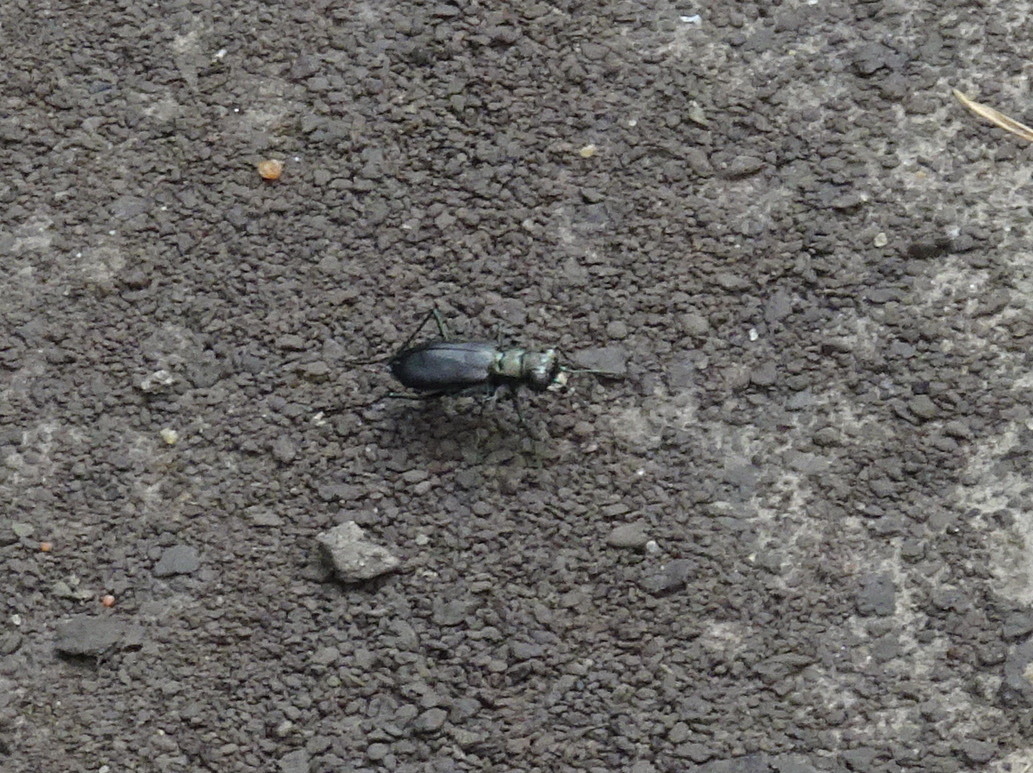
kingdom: Animalia
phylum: Arthropoda
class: Insecta
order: Coleoptera
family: Carabidae
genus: Cicindela
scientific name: Cicindela punctulata
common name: Punctured tiger beetle
